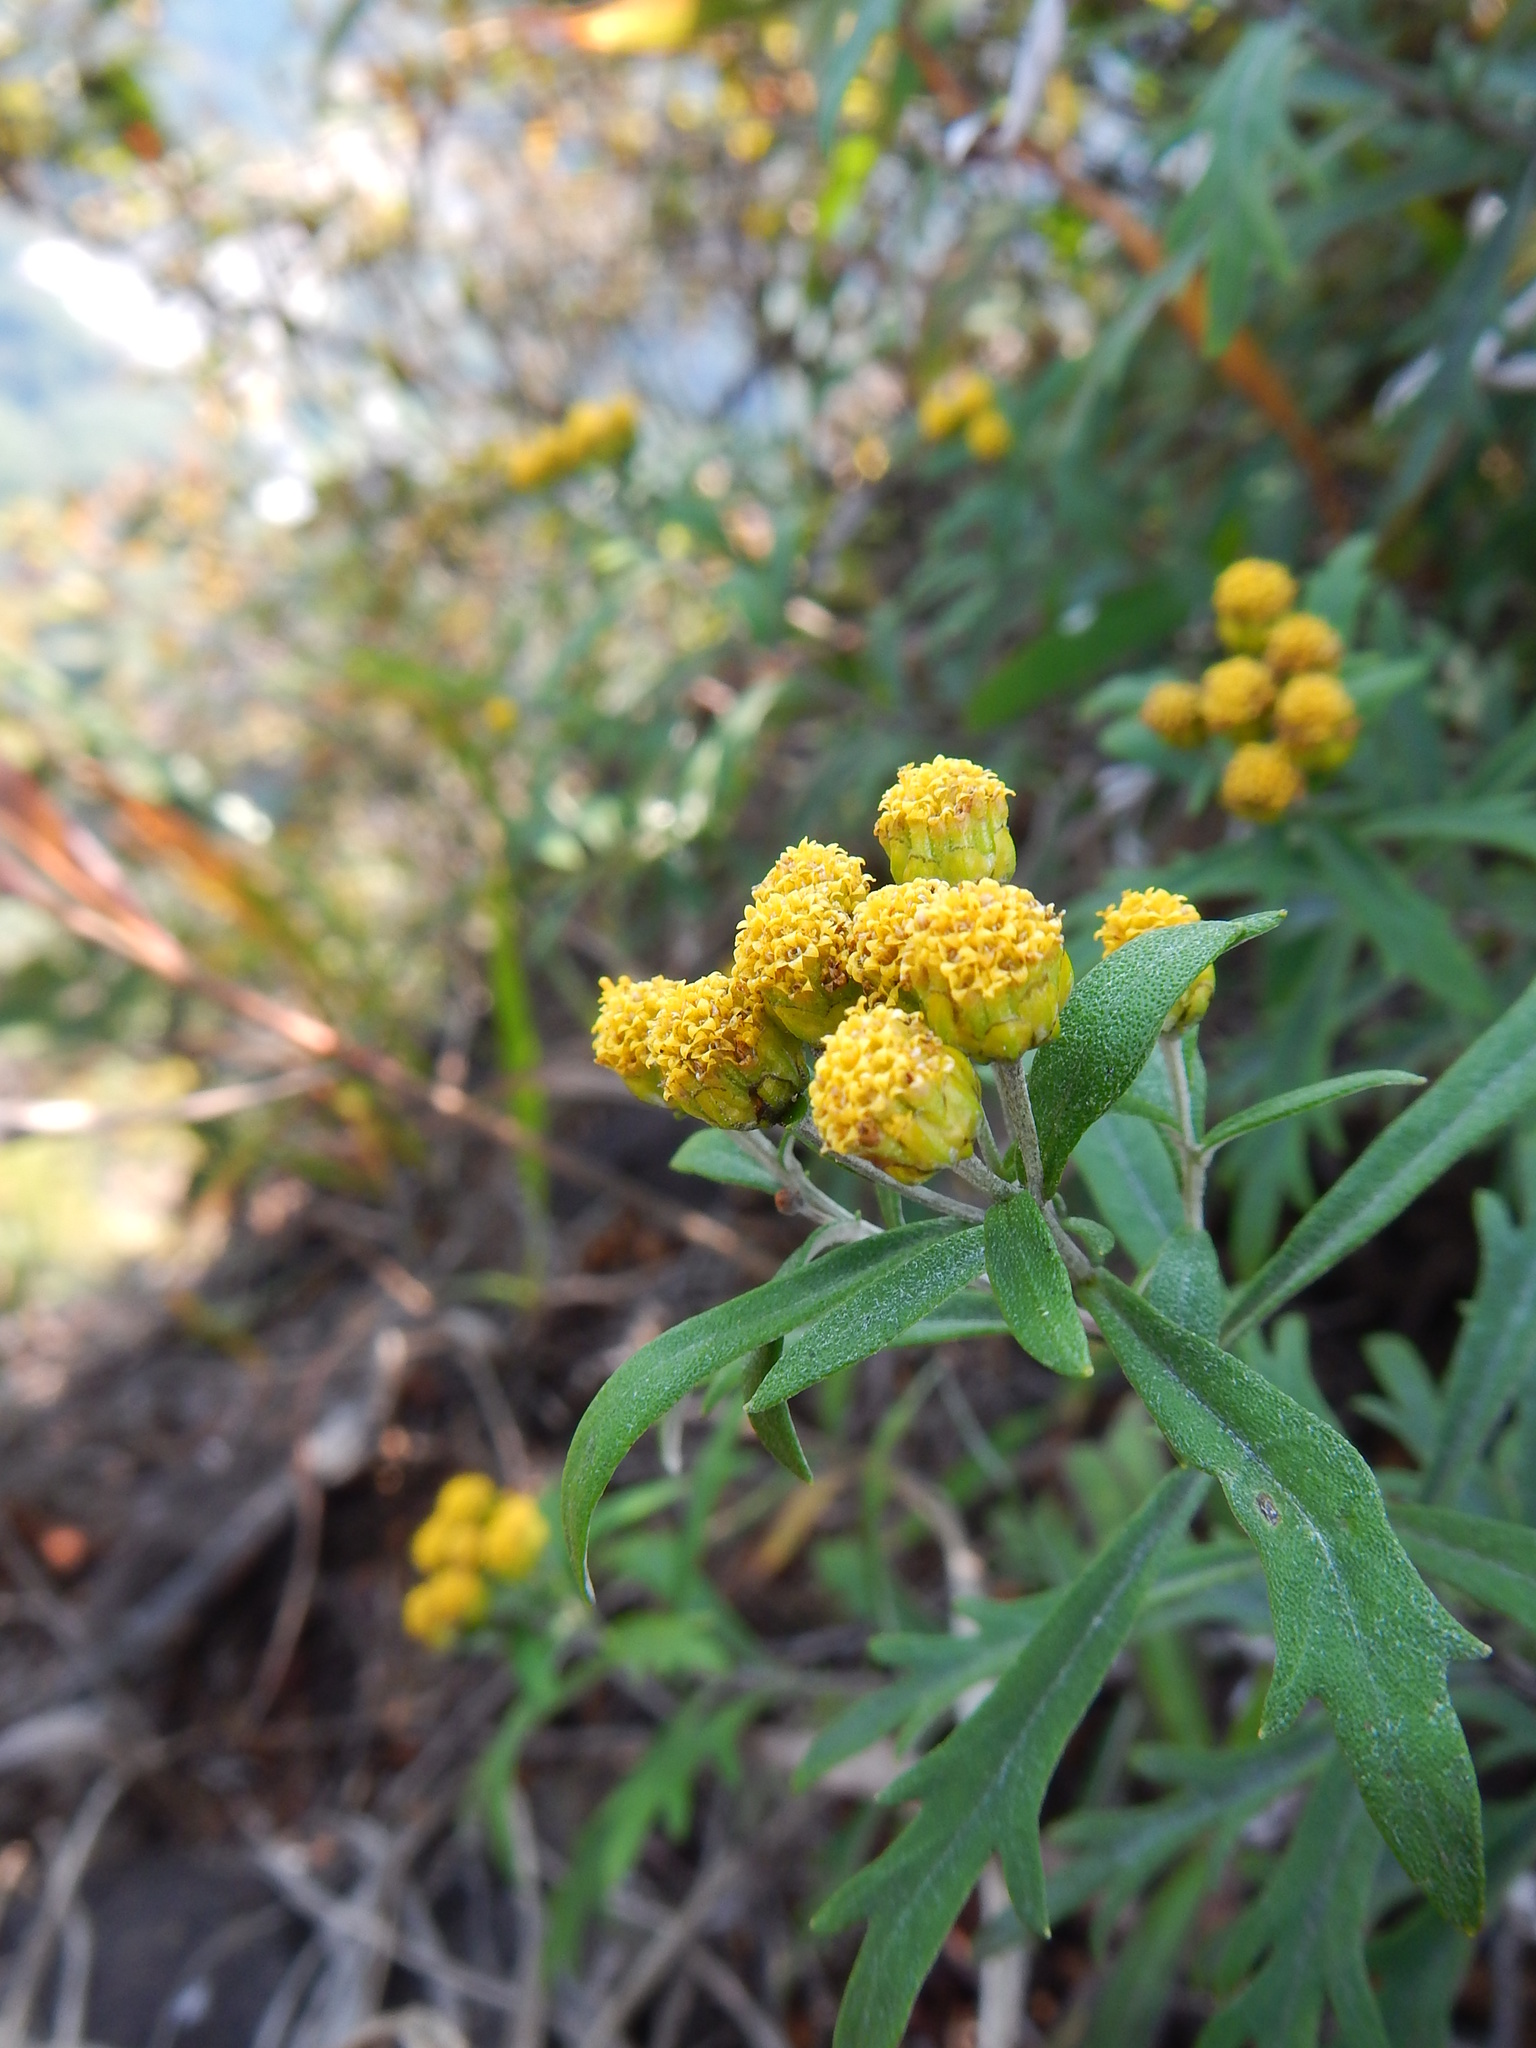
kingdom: Plantae
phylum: Tracheophyta
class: Magnoliopsida
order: Asterales
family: Asteraceae
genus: Ajania
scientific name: Ajania rupestris
